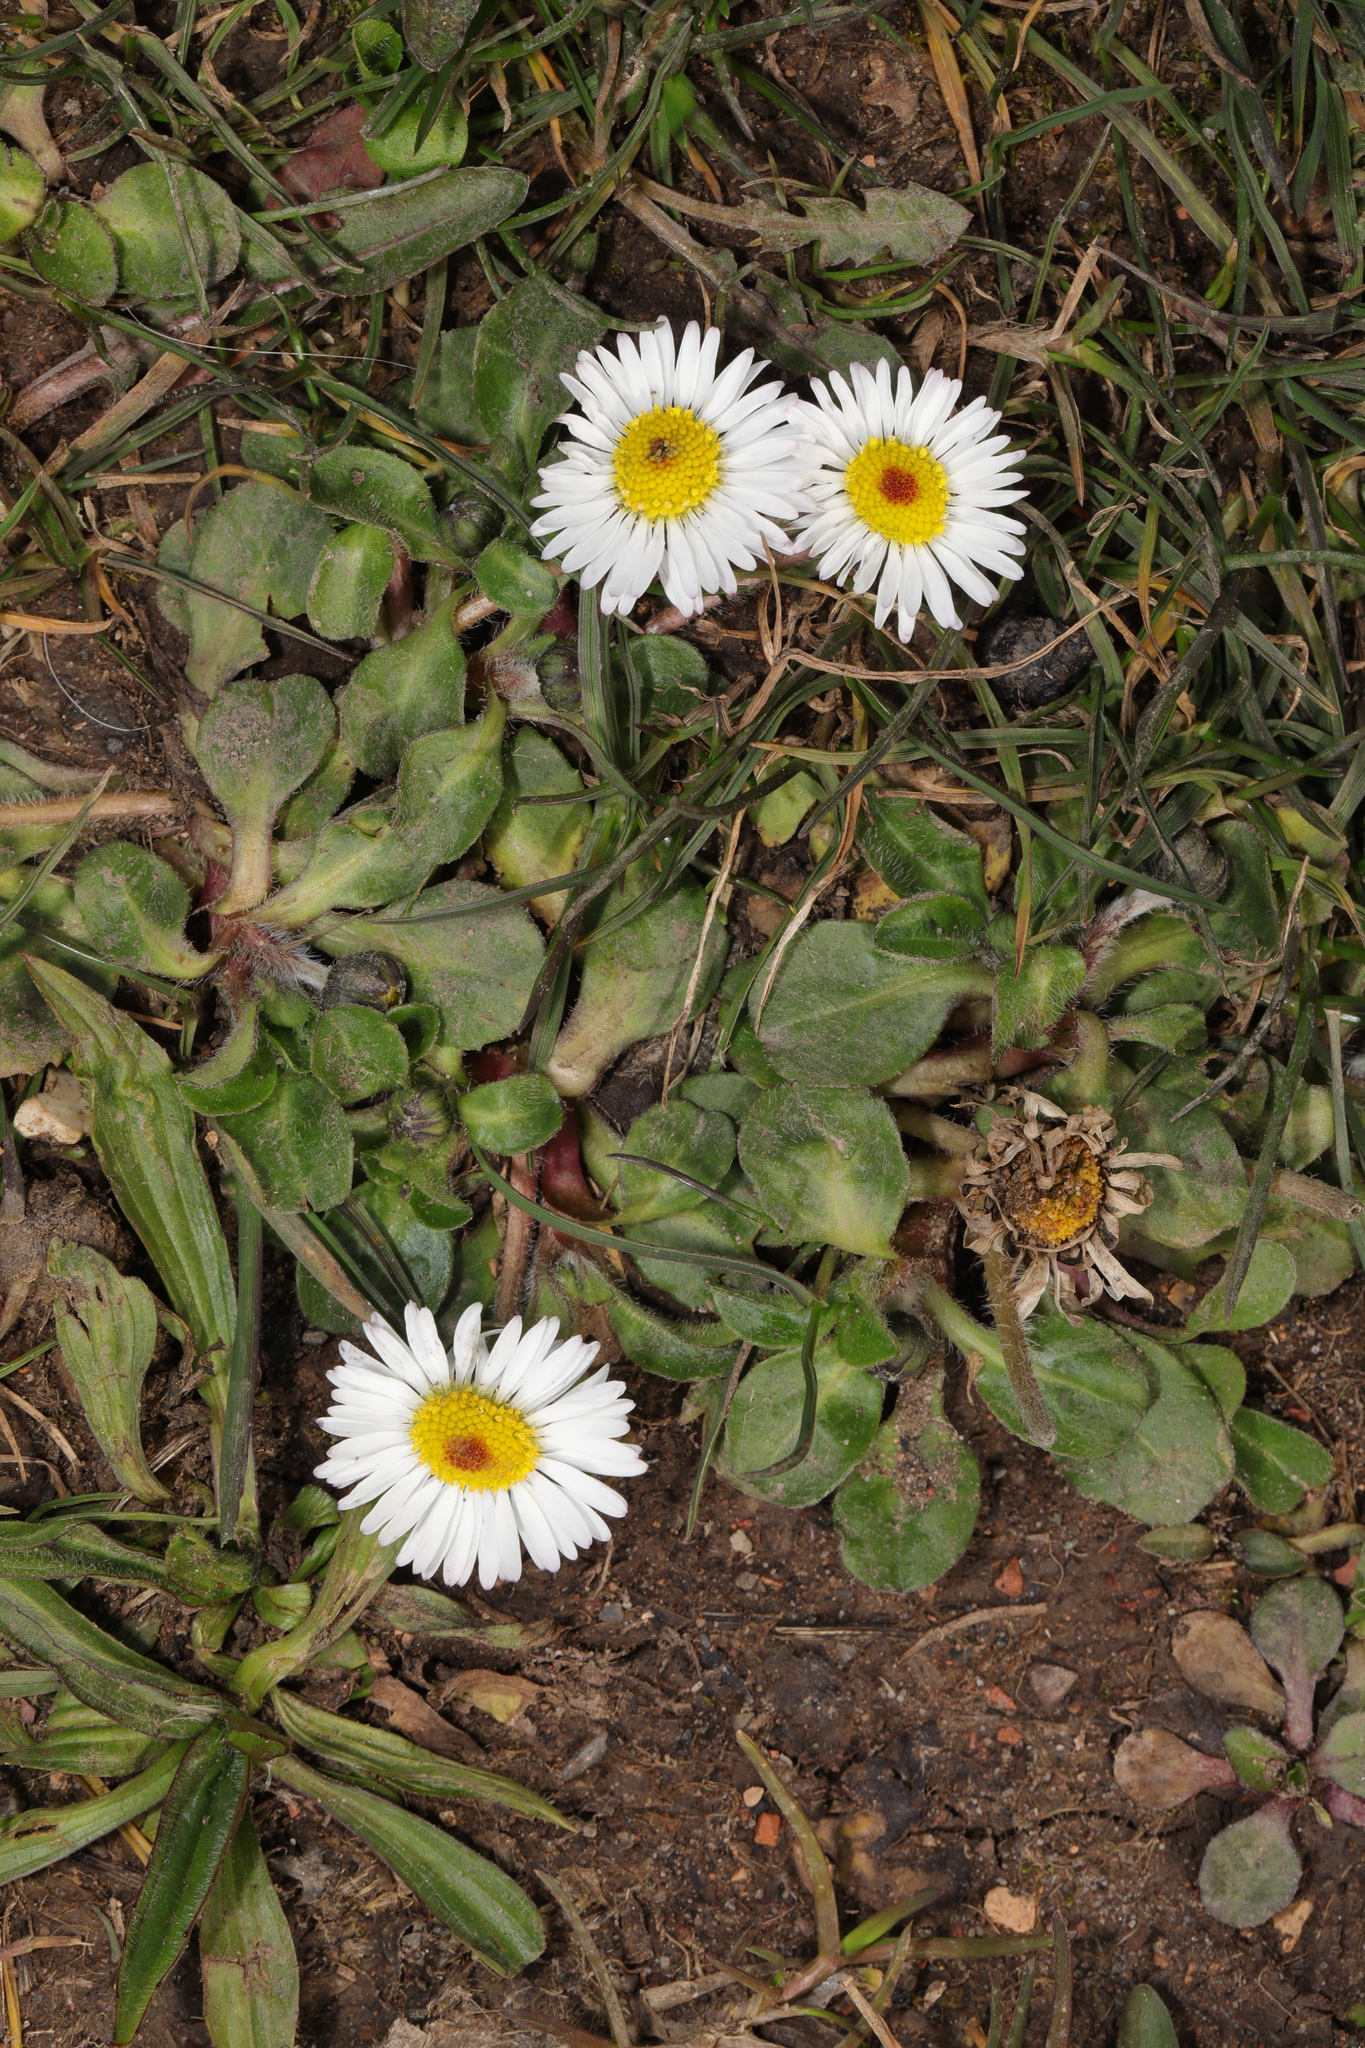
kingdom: Plantae
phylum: Tracheophyta
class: Magnoliopsida
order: Asterales
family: Asteraceae
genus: Bellis
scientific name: Bellis perennis
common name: Lawndaisy
